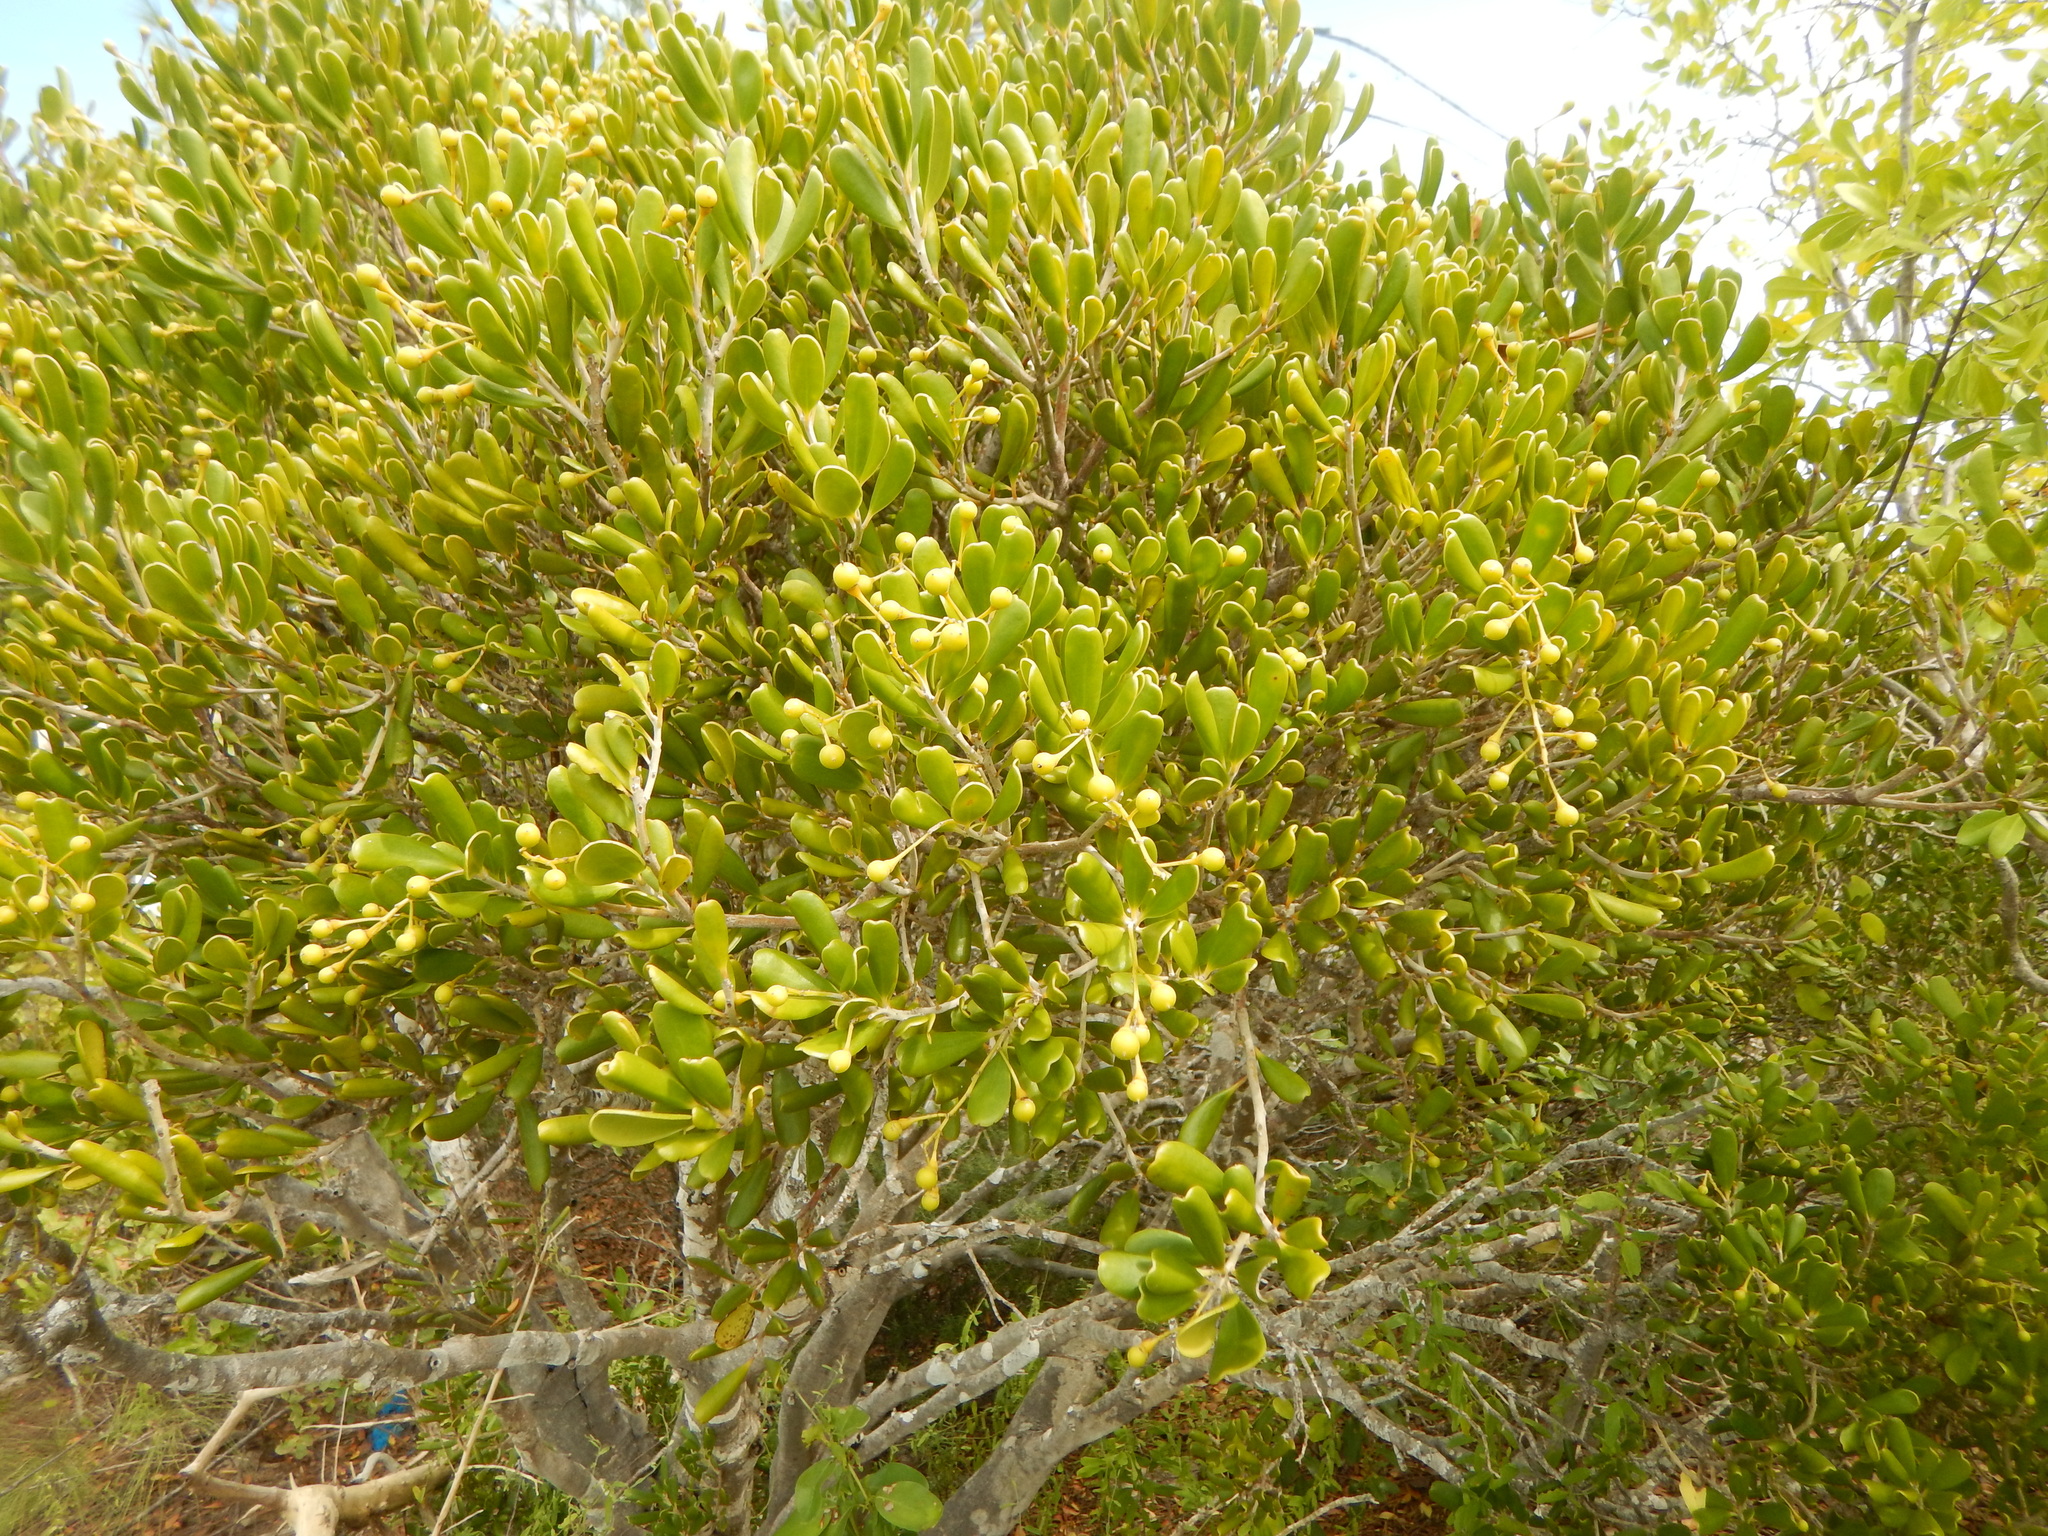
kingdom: Plantae
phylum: Tracheophyta
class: Magnoliopsida
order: Ericales
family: Primulaceae
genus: Jacquinia
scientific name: Jacquinia keyensis
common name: Joebush
